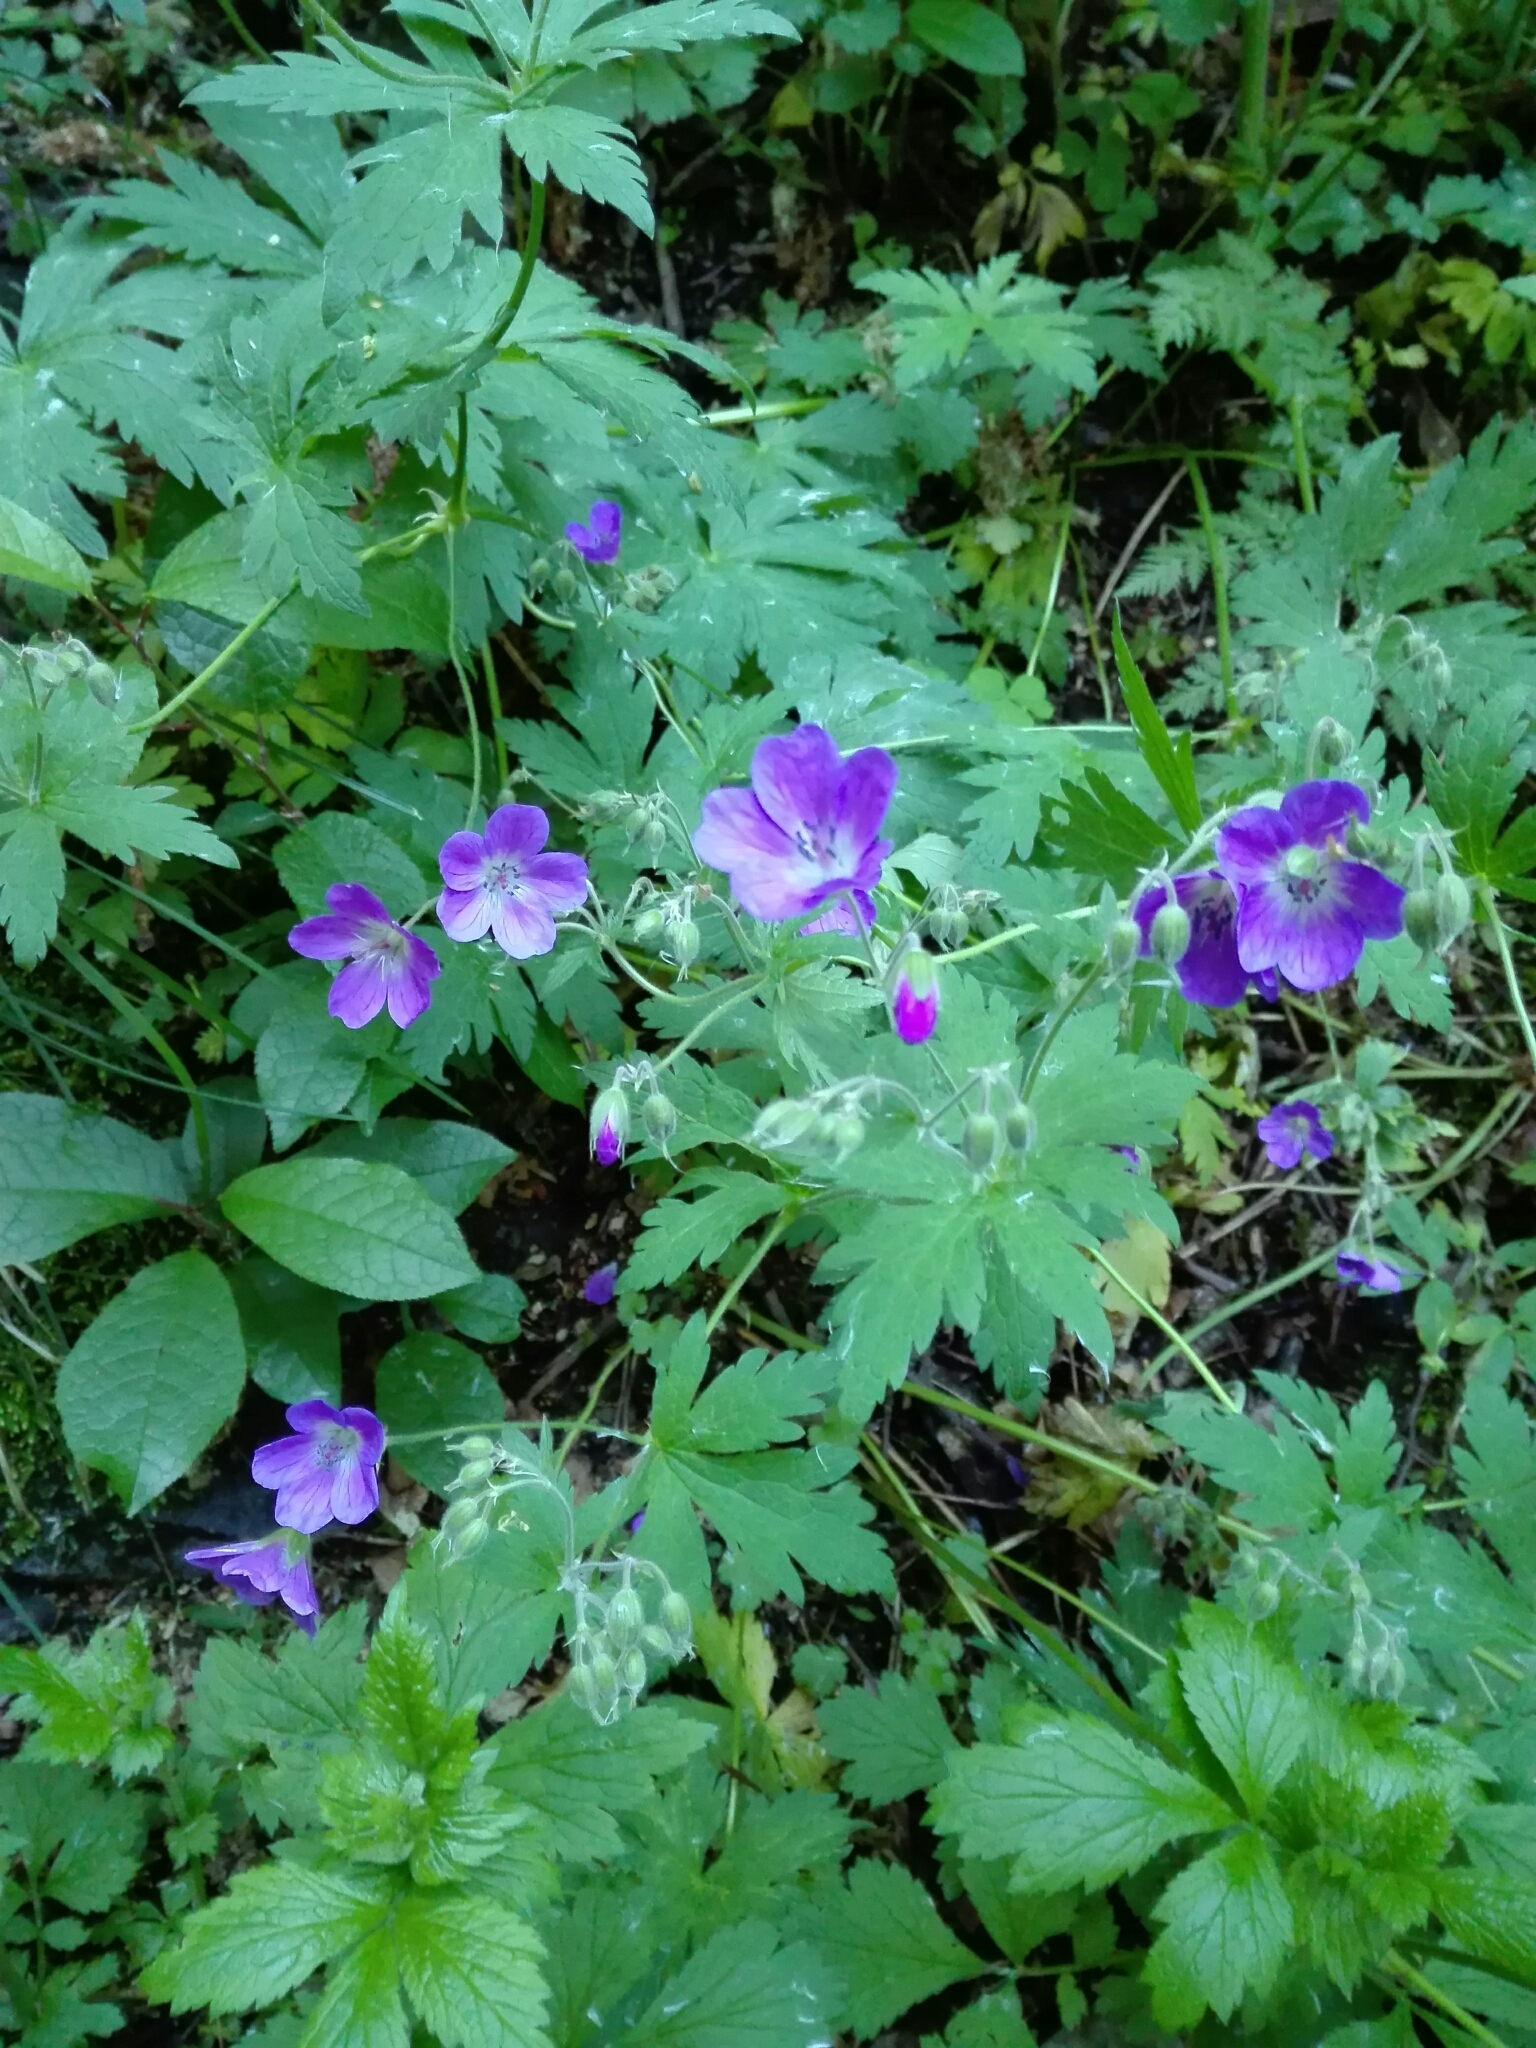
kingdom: Plantae
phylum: Tracheophyta
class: Magnoliopsida
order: Geraniales
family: Geraniaceae
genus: Geranium
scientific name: Geranium sylvaticum
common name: Wood crane's-bill
